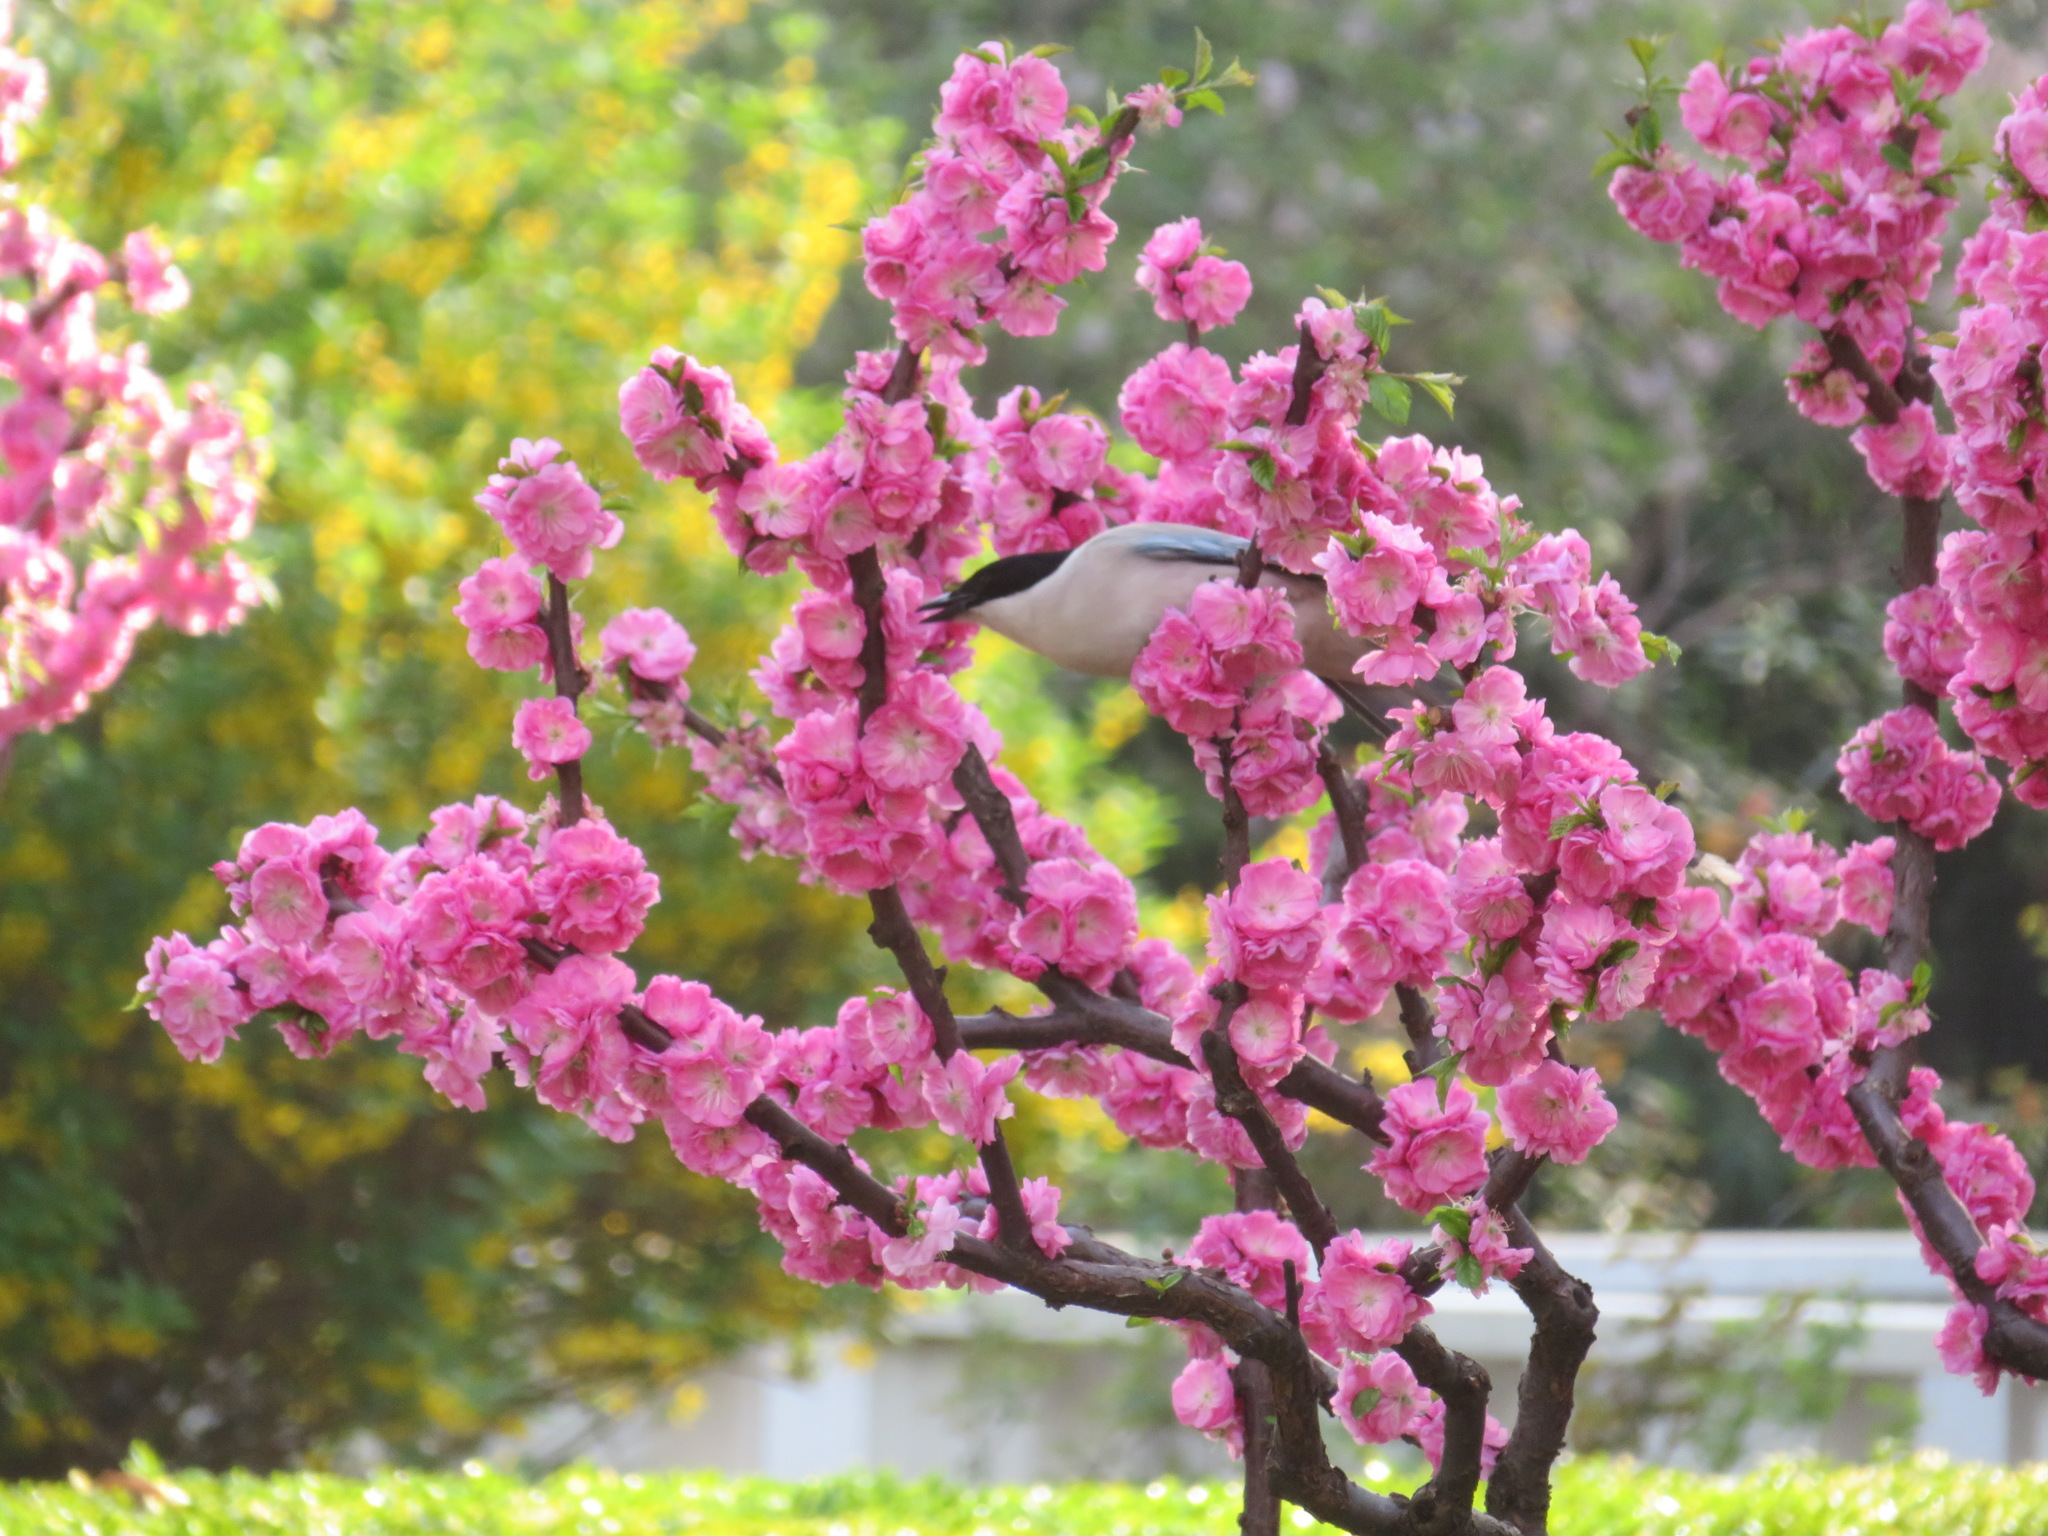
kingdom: Animalia
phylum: Chordata
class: Aves
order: Passeriformes
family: Corvidae
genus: Cyanopica
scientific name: Cyanopica cyanus
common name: Azure-winged magpie
